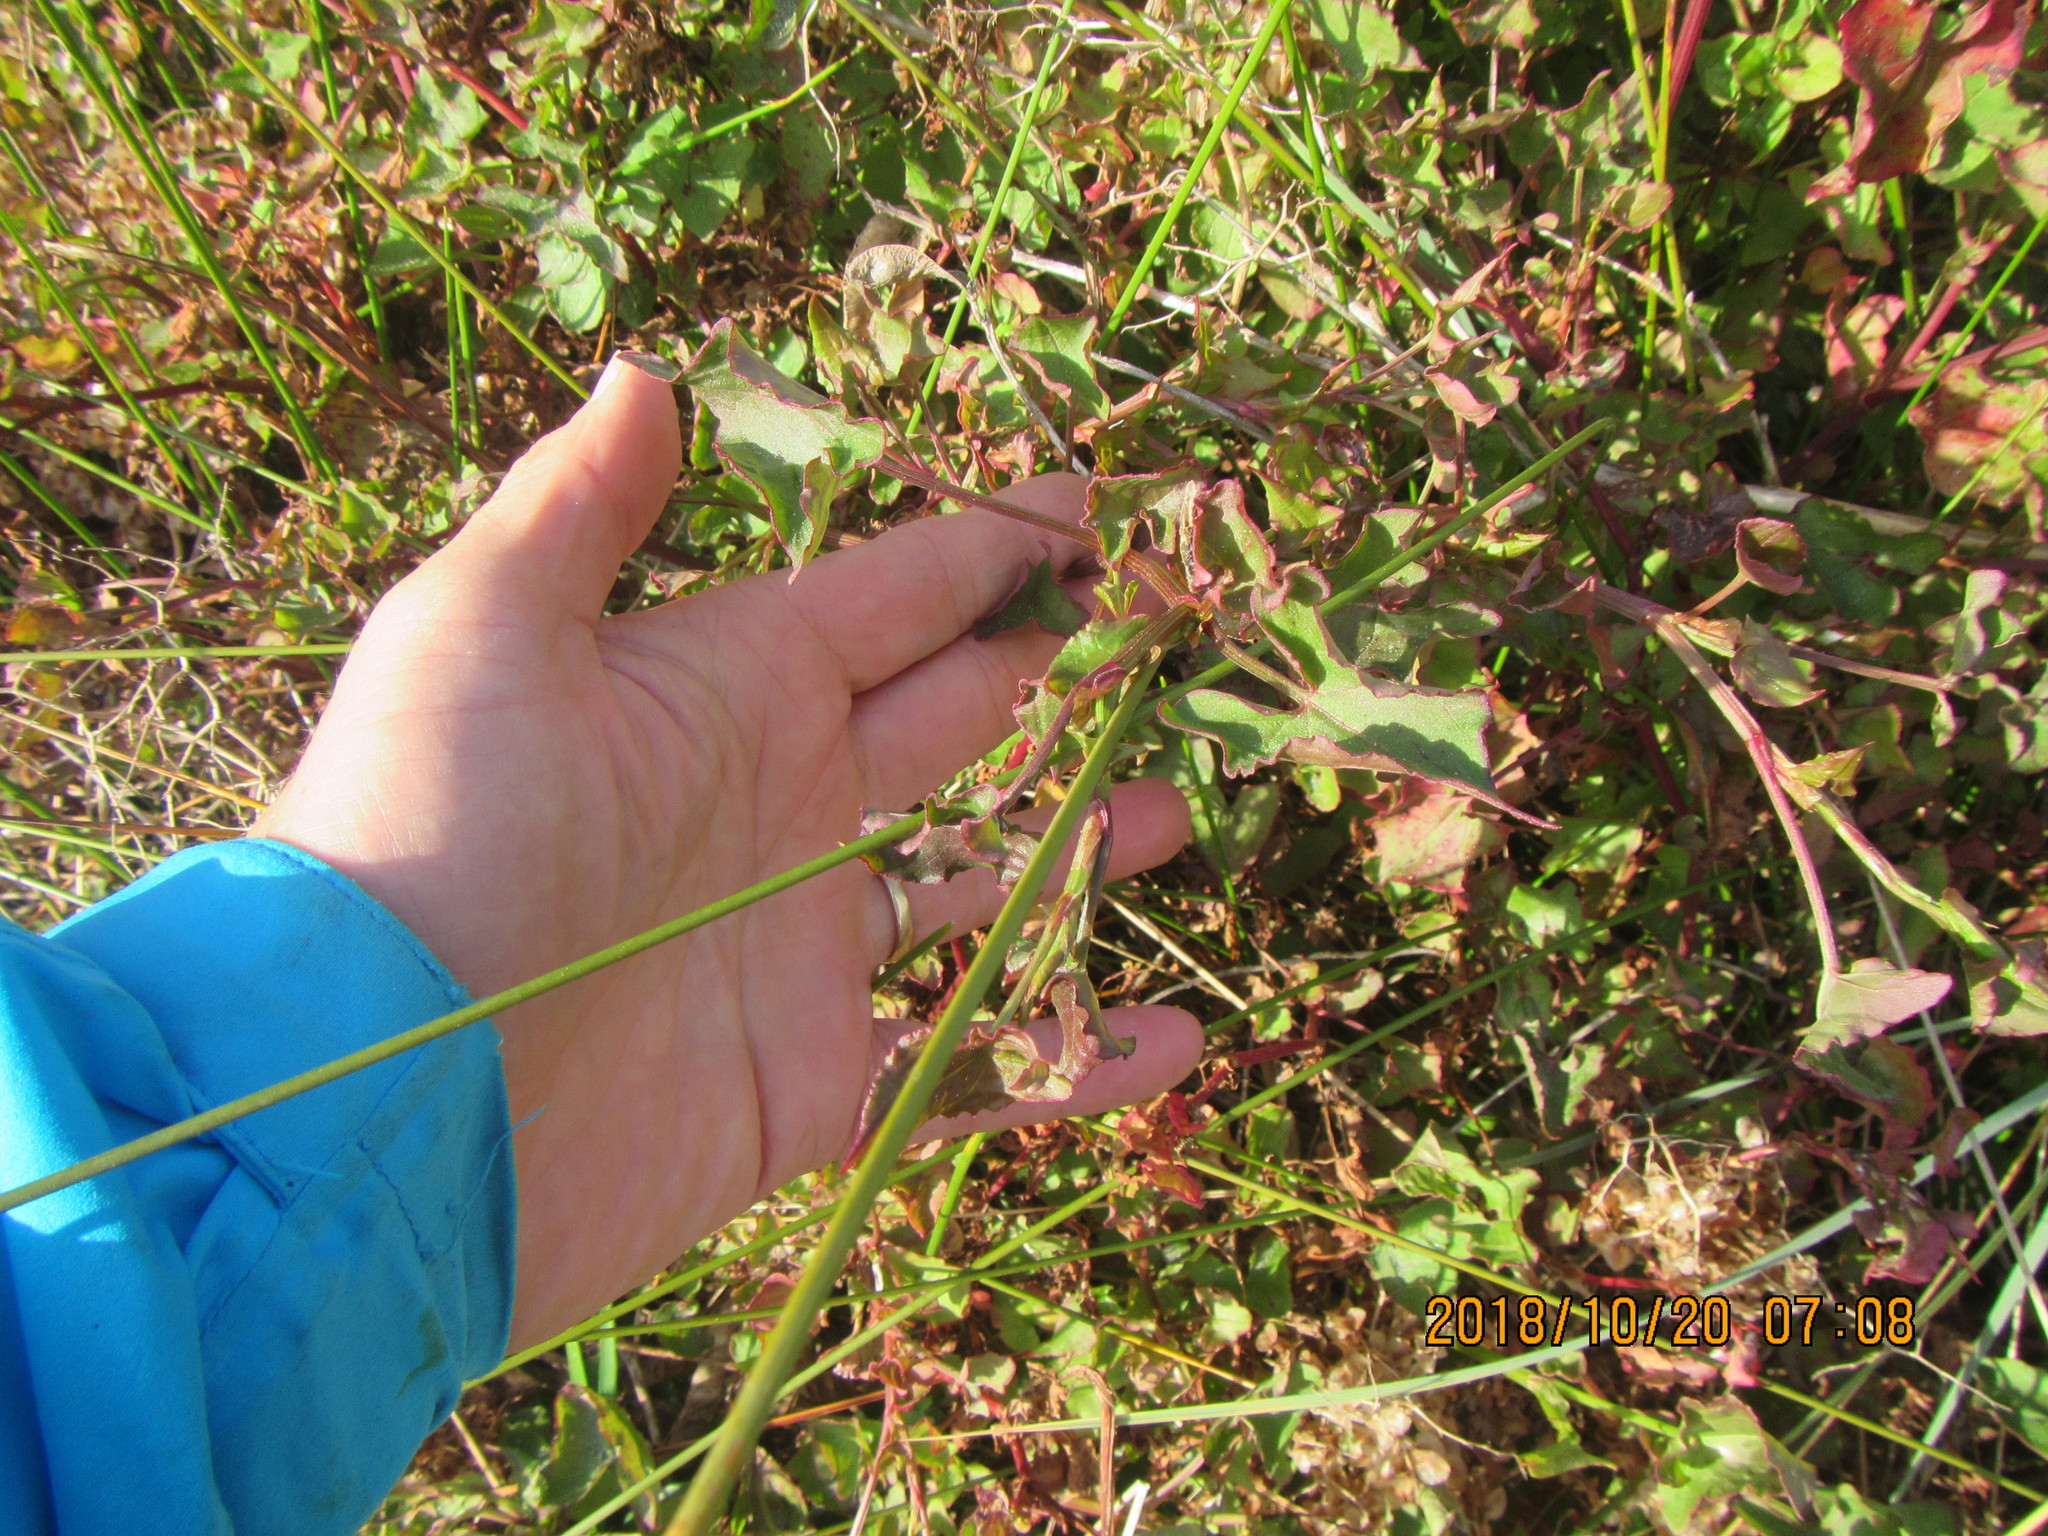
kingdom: Plantae
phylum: Tracheophyta
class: Magnoliopsida
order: Caryophyllales
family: Polygonaceae
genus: Rumex
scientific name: Rumex sagittatus
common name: Climbing dock
